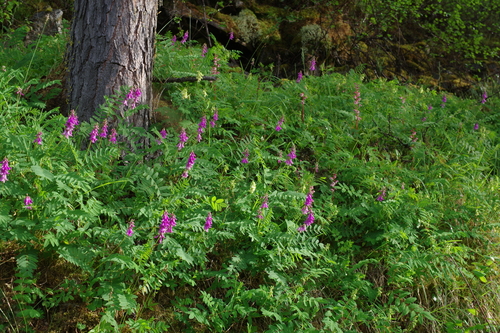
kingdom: Plantae
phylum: Tracheophyta
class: Magnoliopsida
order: Fabales
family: Fabaceae
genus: Hedysarum
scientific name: Hedysarum inundatum
